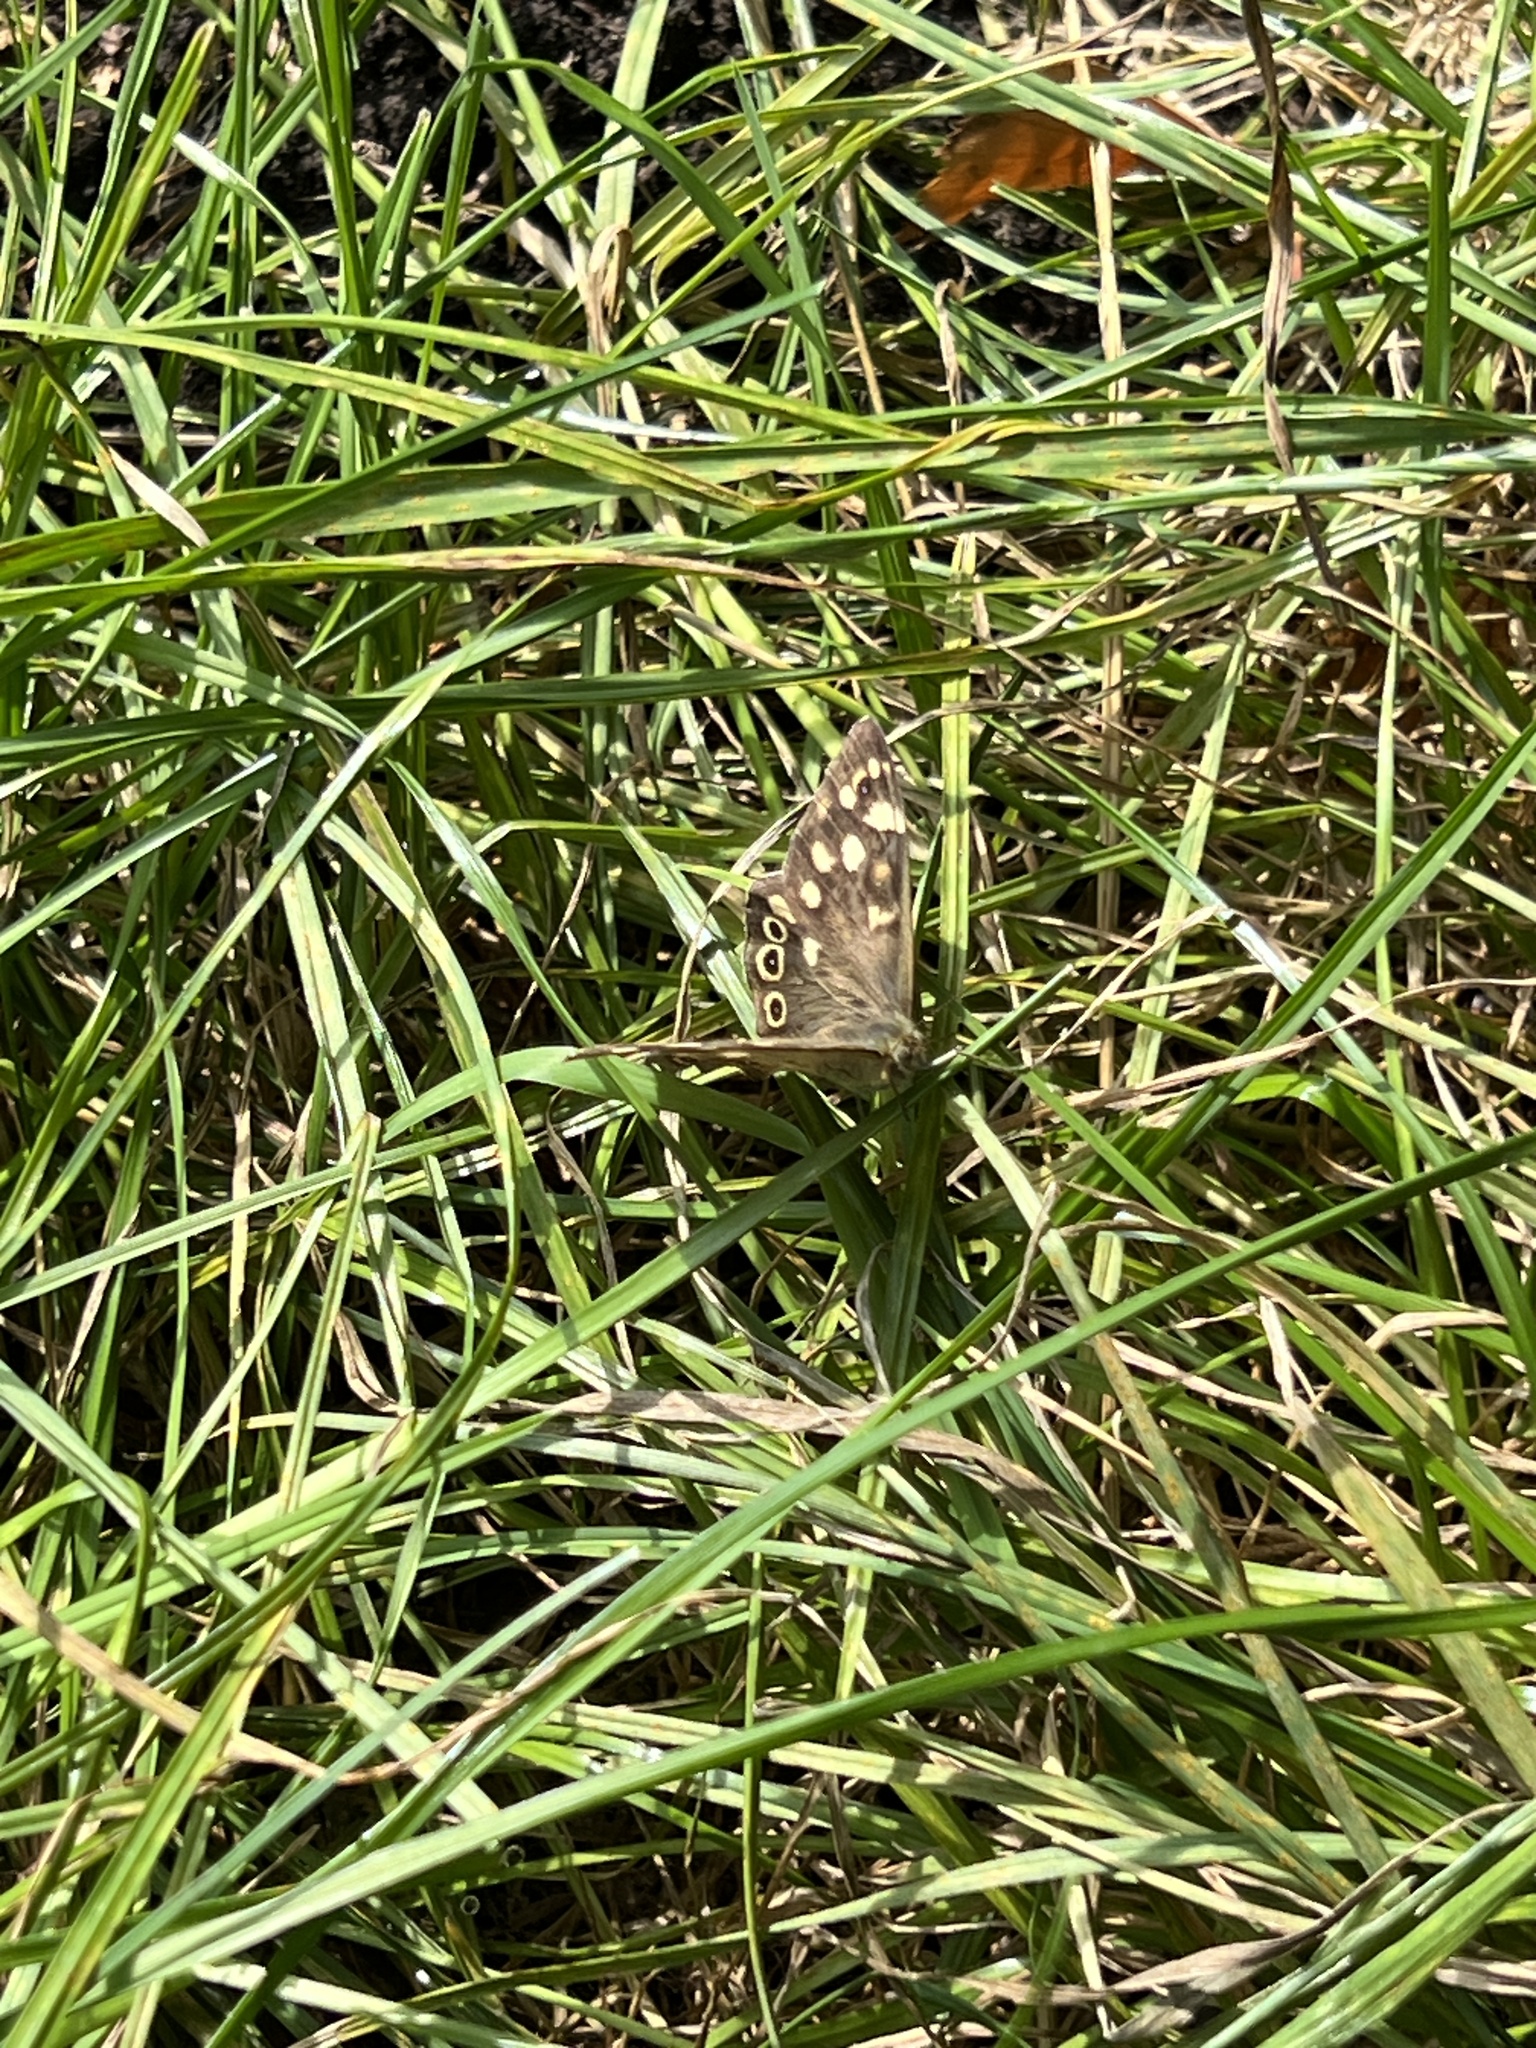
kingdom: Animalia
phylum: Arthropoda
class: Insecta
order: Lepidoptera
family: Nymphalidae
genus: Pararge
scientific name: Pararge aegeria
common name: Speckled wood
